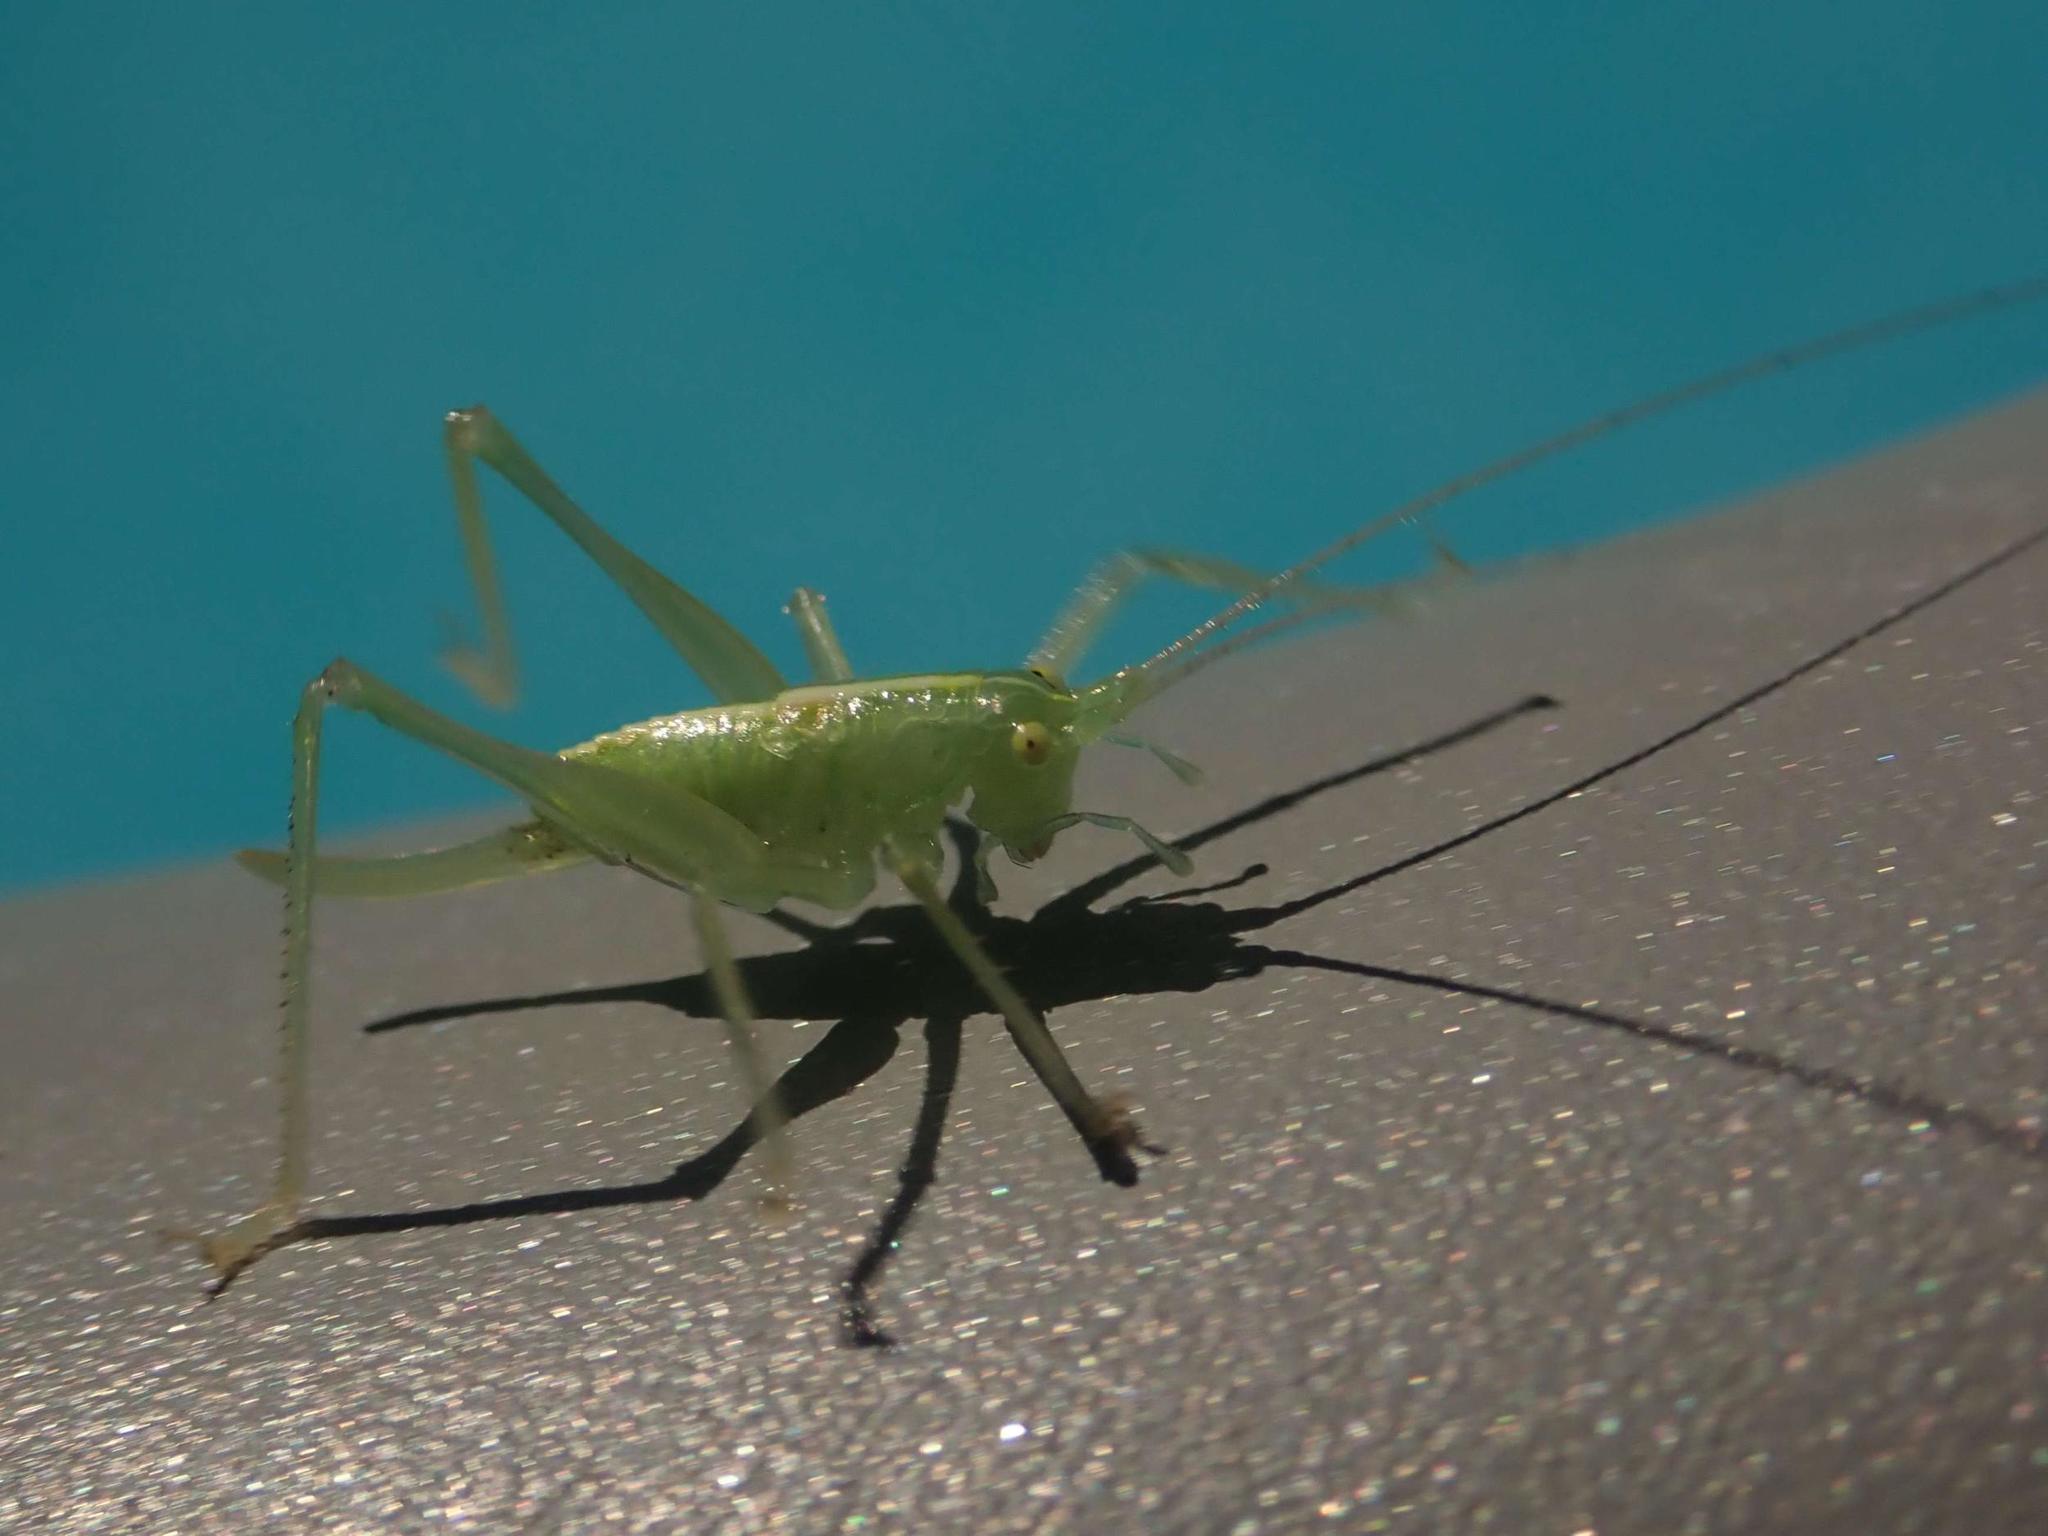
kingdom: Animalia
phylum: Arthropoda
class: Insecta
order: Orthoptera
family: Tettigoniidae
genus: Meconema
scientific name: Meconema meridionale
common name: Southern oak bush-cricket
